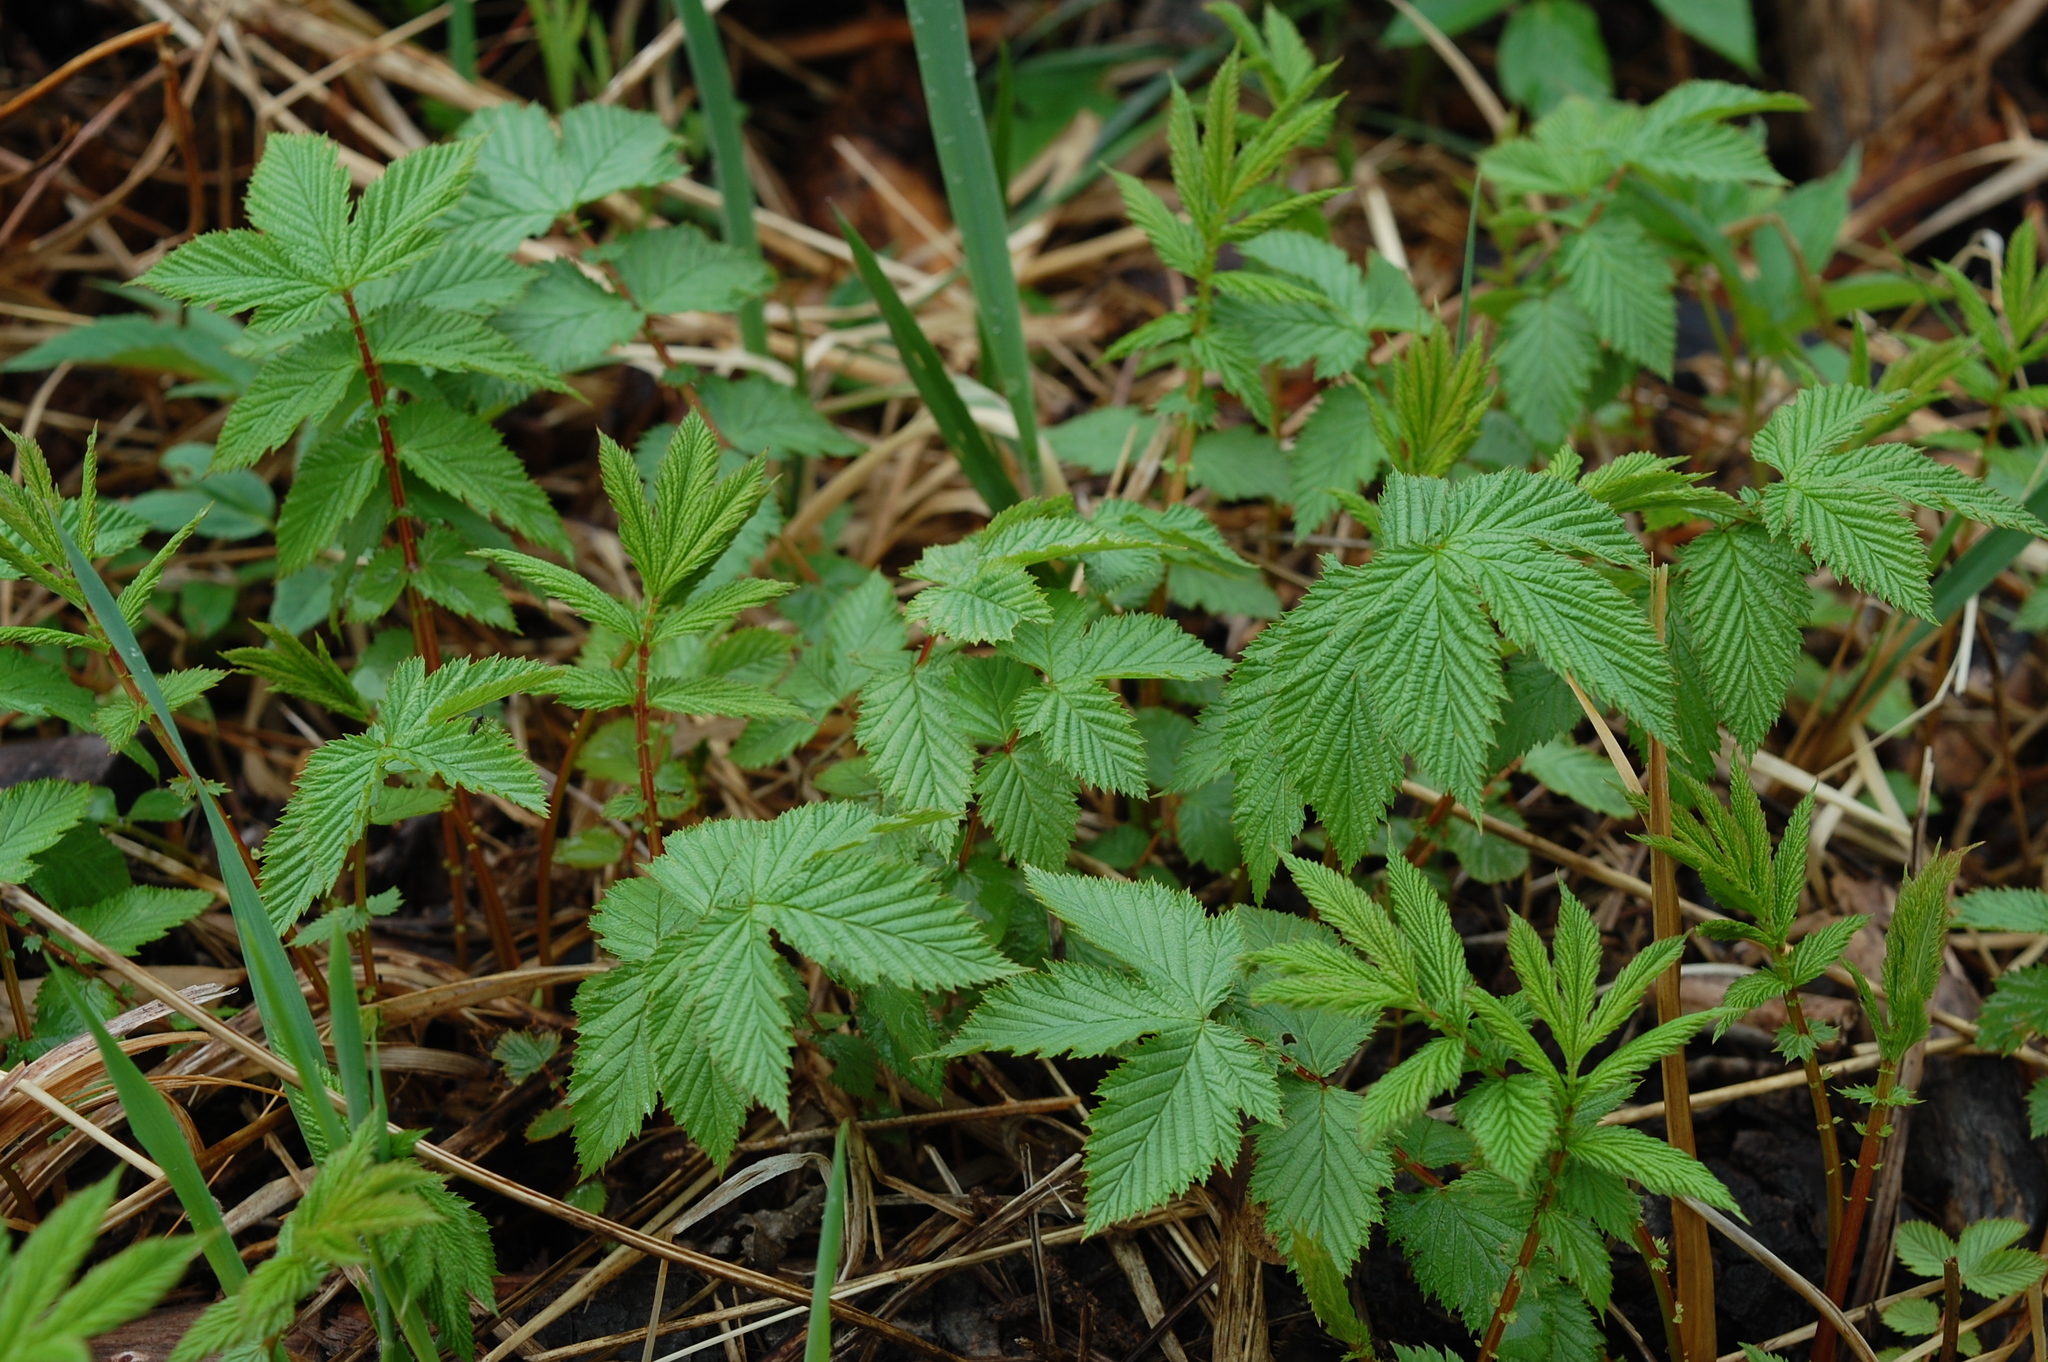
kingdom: Plantae
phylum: Tracheophyta
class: Magnoliopsida
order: Rosales
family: Rosaceae
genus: Filipendula
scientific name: Filipendula ulmaria
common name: Meadowsweet
